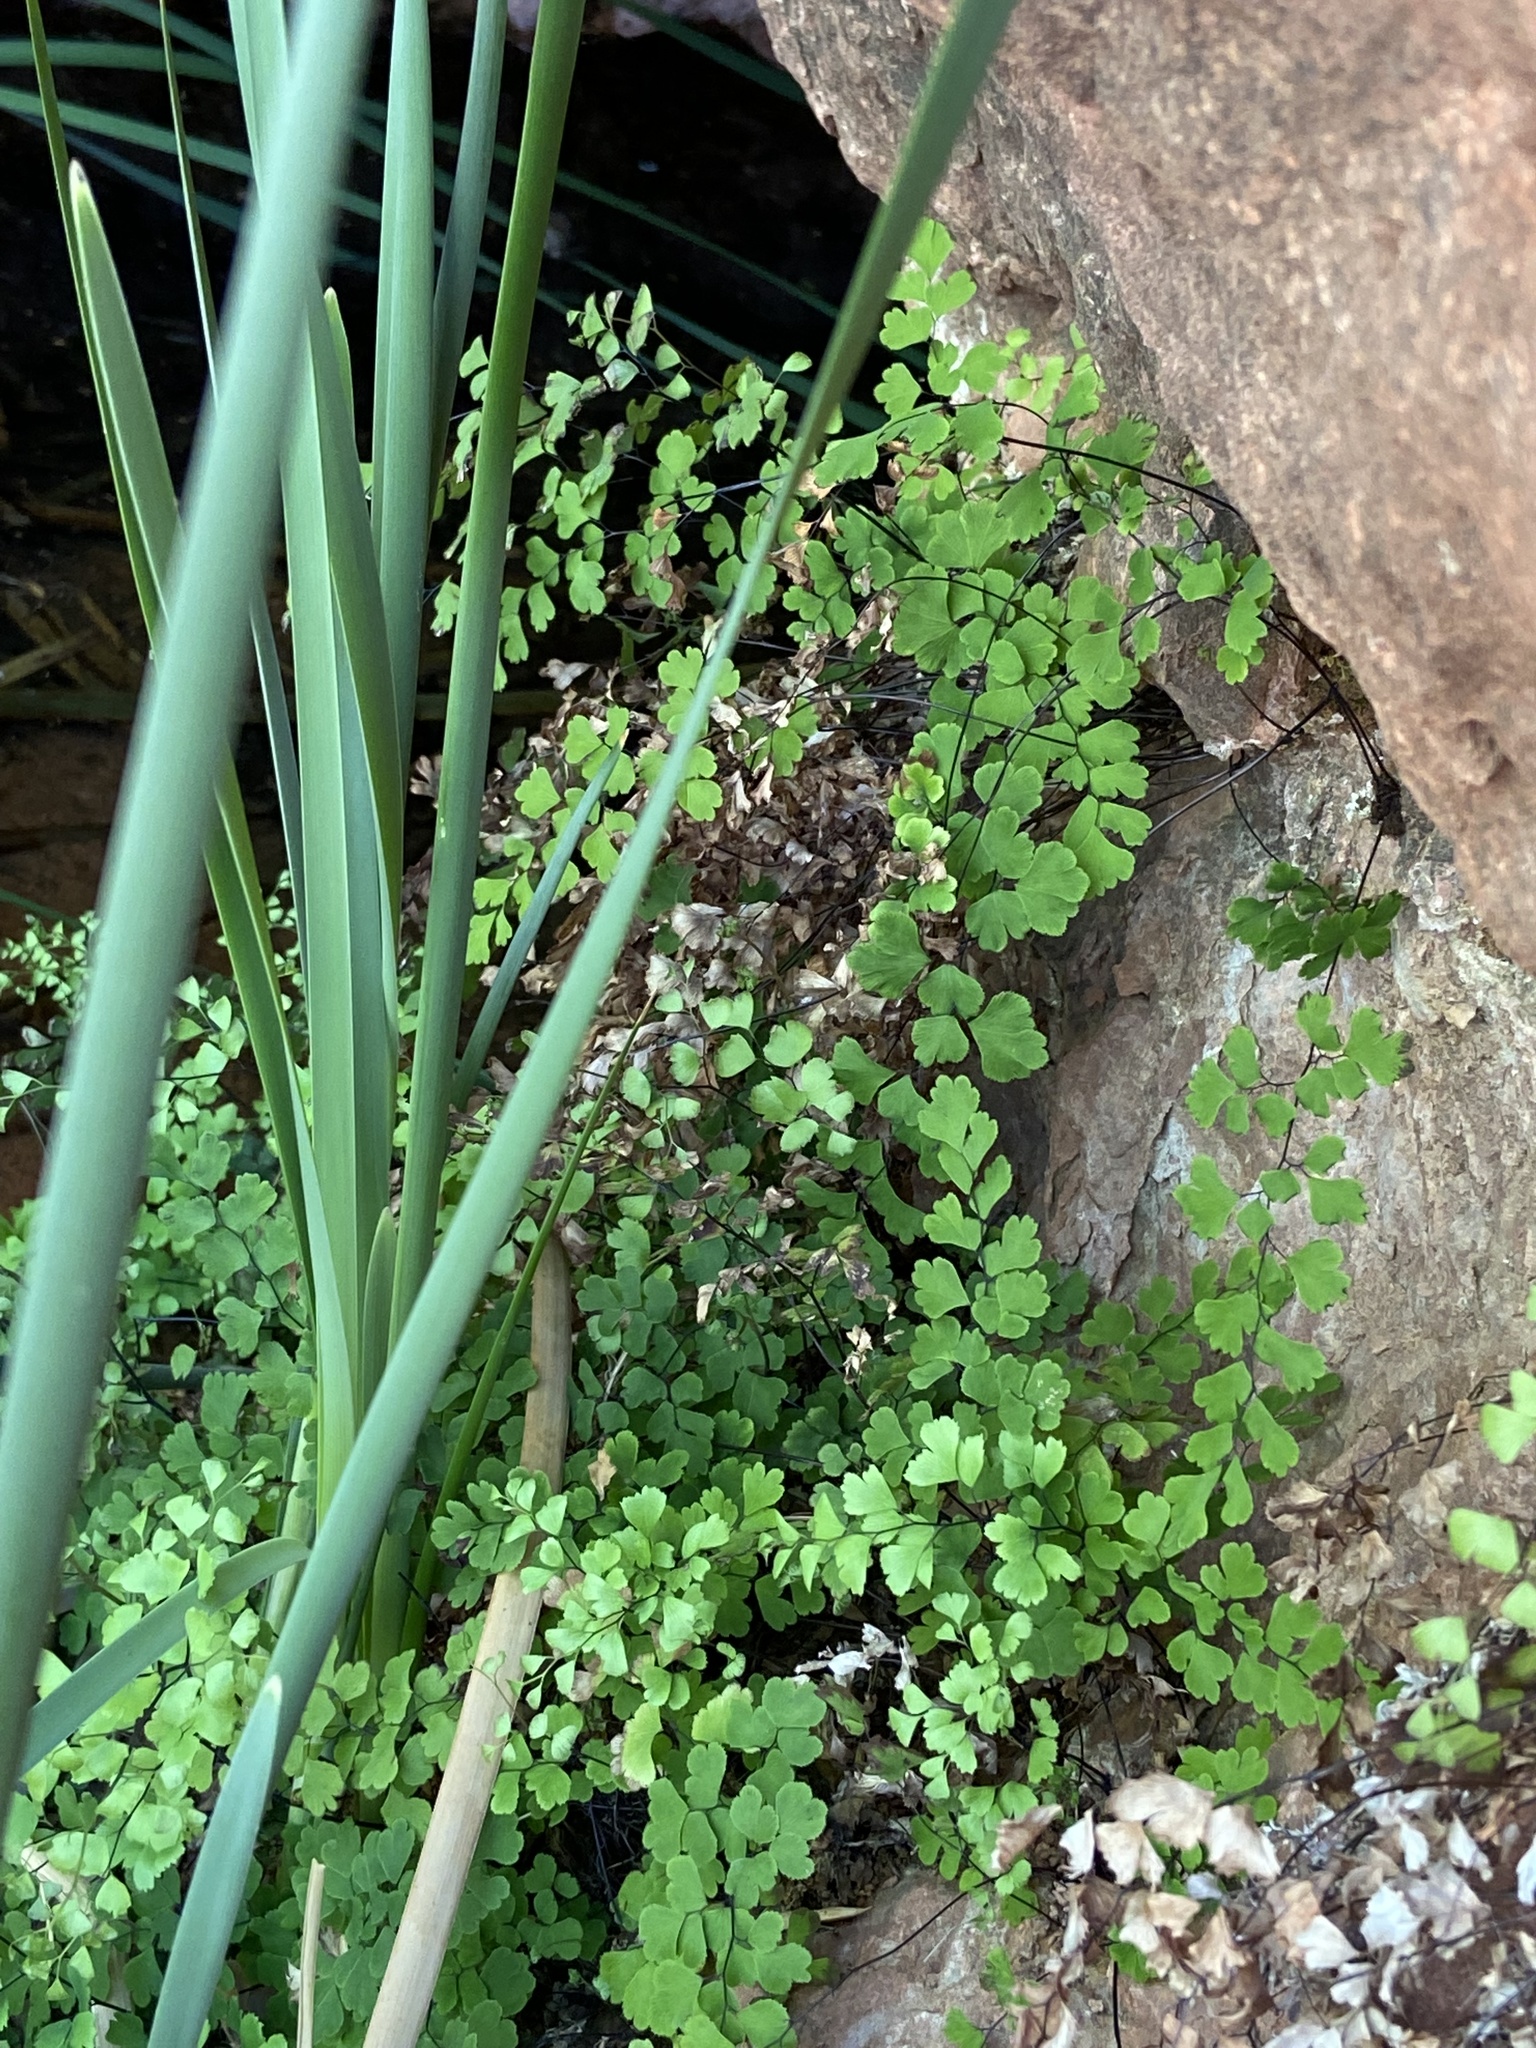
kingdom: Plantae
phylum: Tracheophyta
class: Polypodiopsida
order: Polypodiales
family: Pteridaceae
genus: Adiantum
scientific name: Adiantum capillus-veneris
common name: Maidenhair fern
